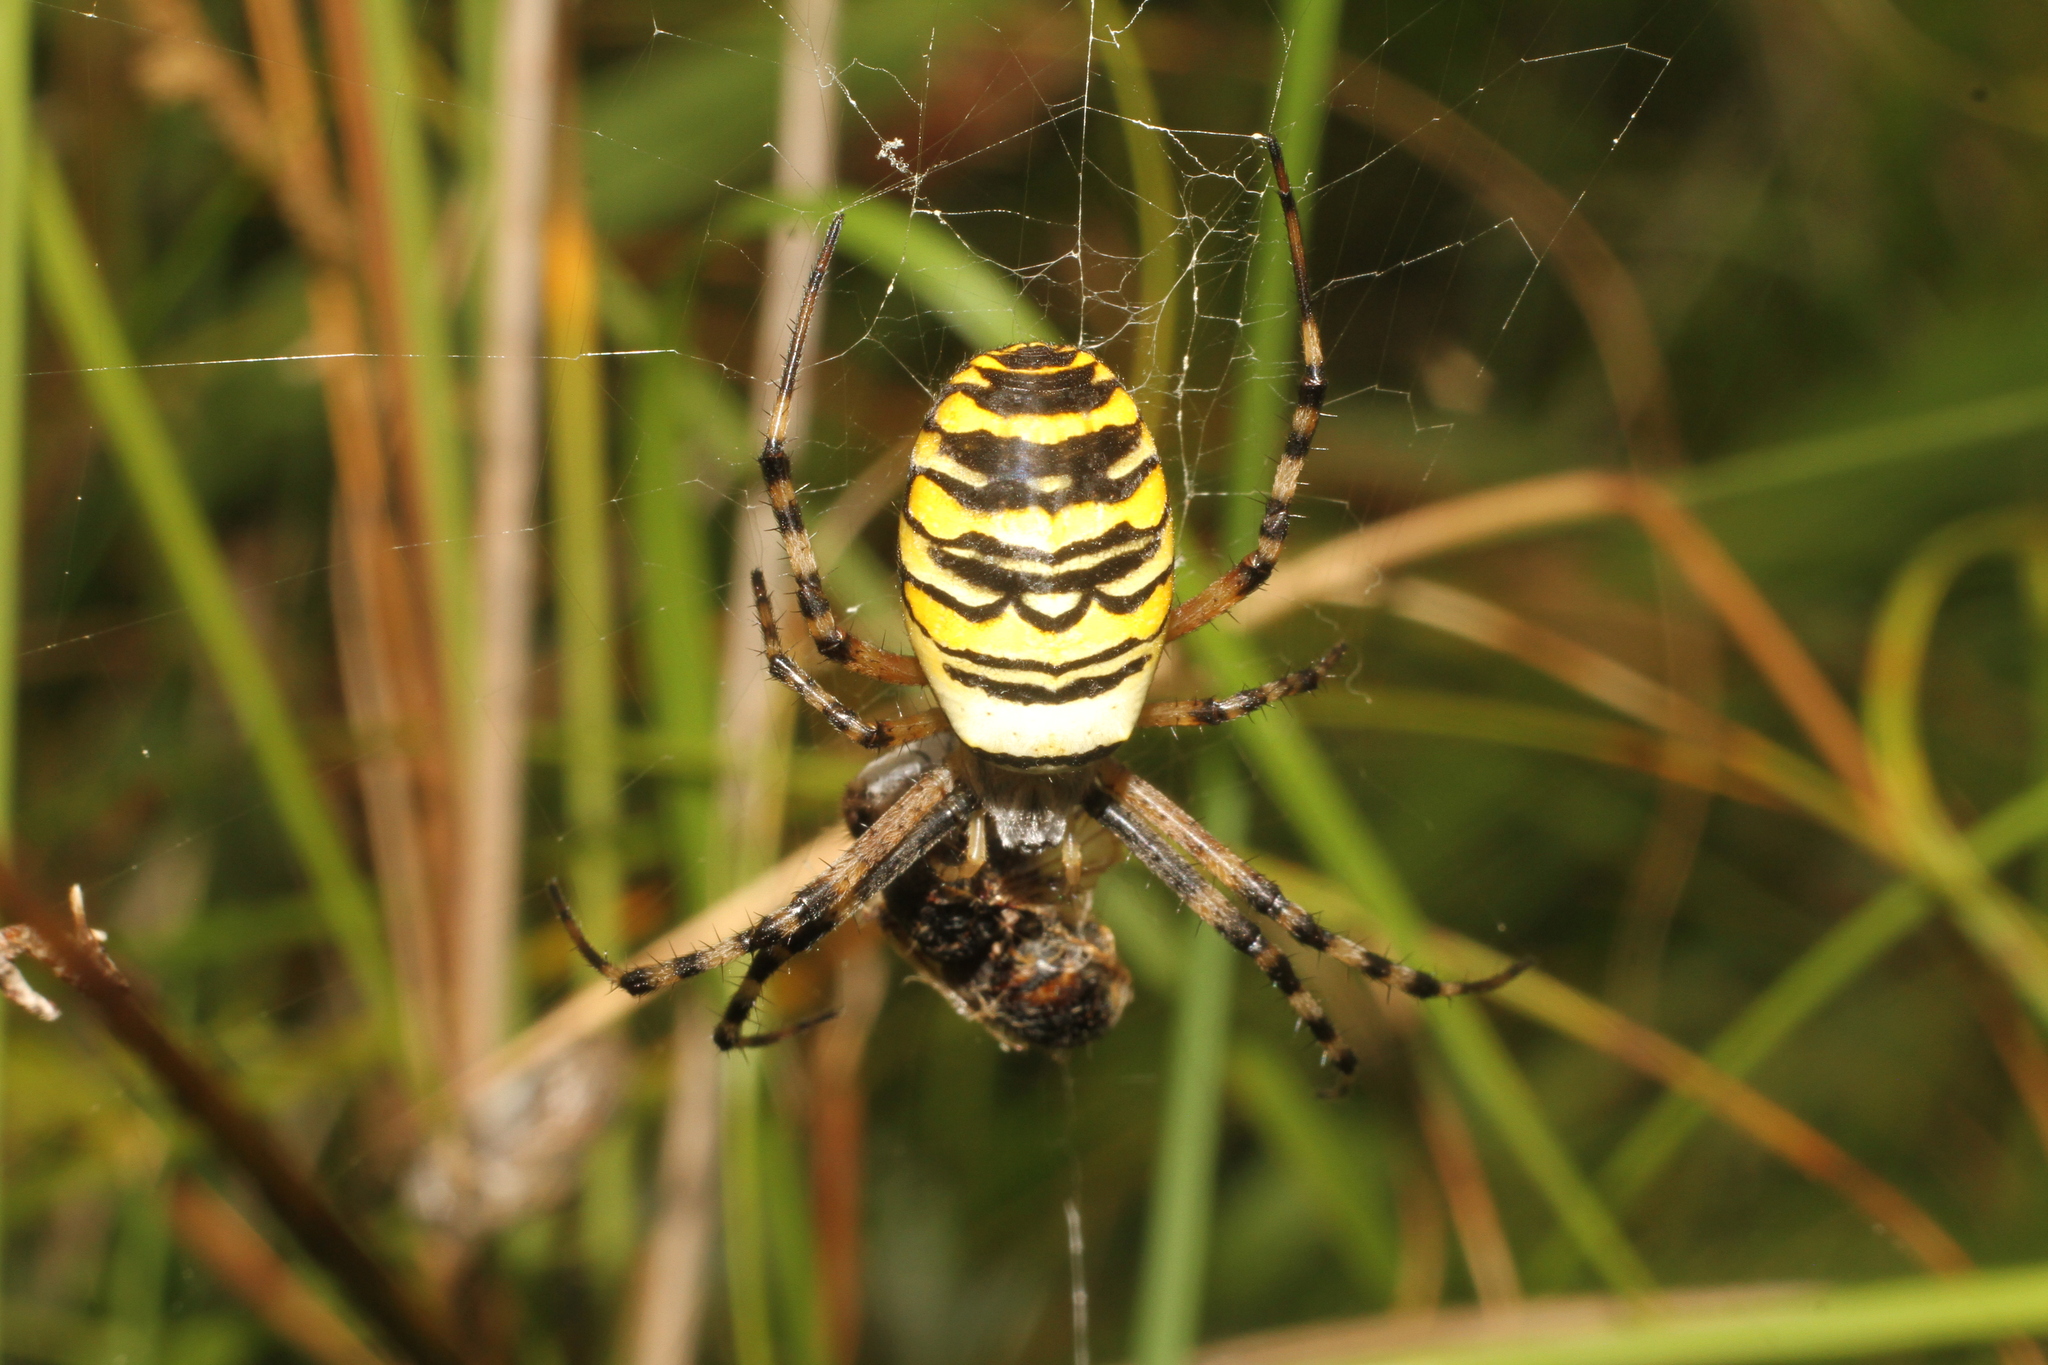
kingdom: Animalia
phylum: Arthropoda
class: Arachnida
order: Araneae
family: Araneidae
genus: Argiope
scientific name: Argiope bruennichi
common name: Wasp spider
